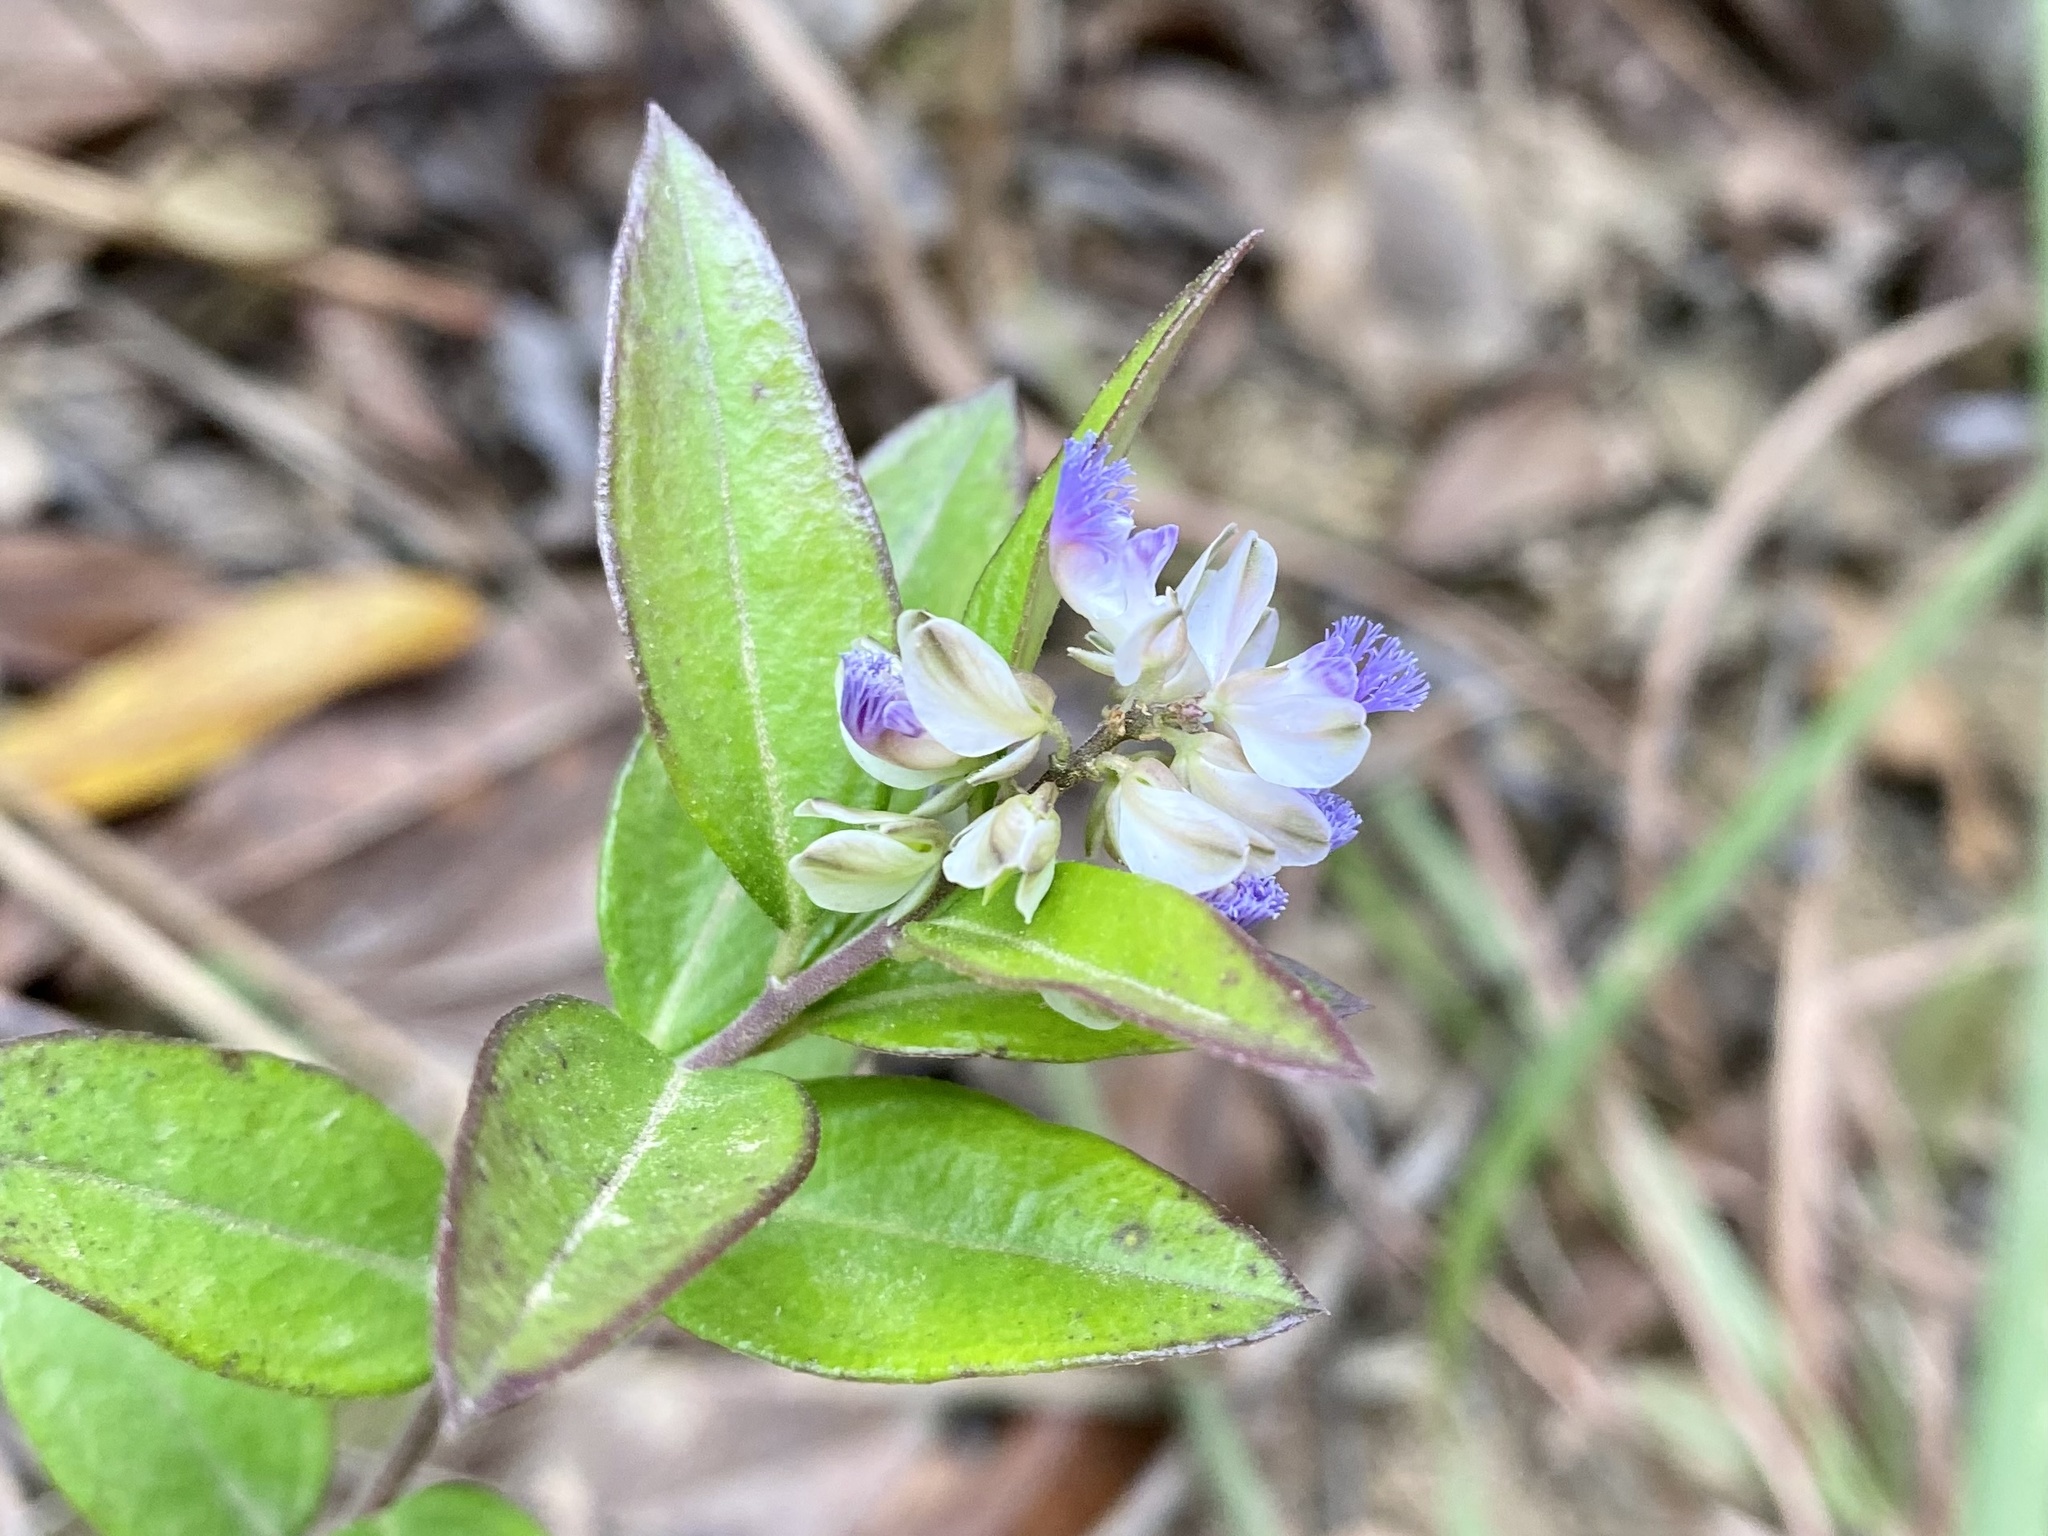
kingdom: Plantae
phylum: Tracheophyta
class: Magnoliopsida
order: Fabales
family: Polygalaceae
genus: Polygala
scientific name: Polygala hongkongensis
